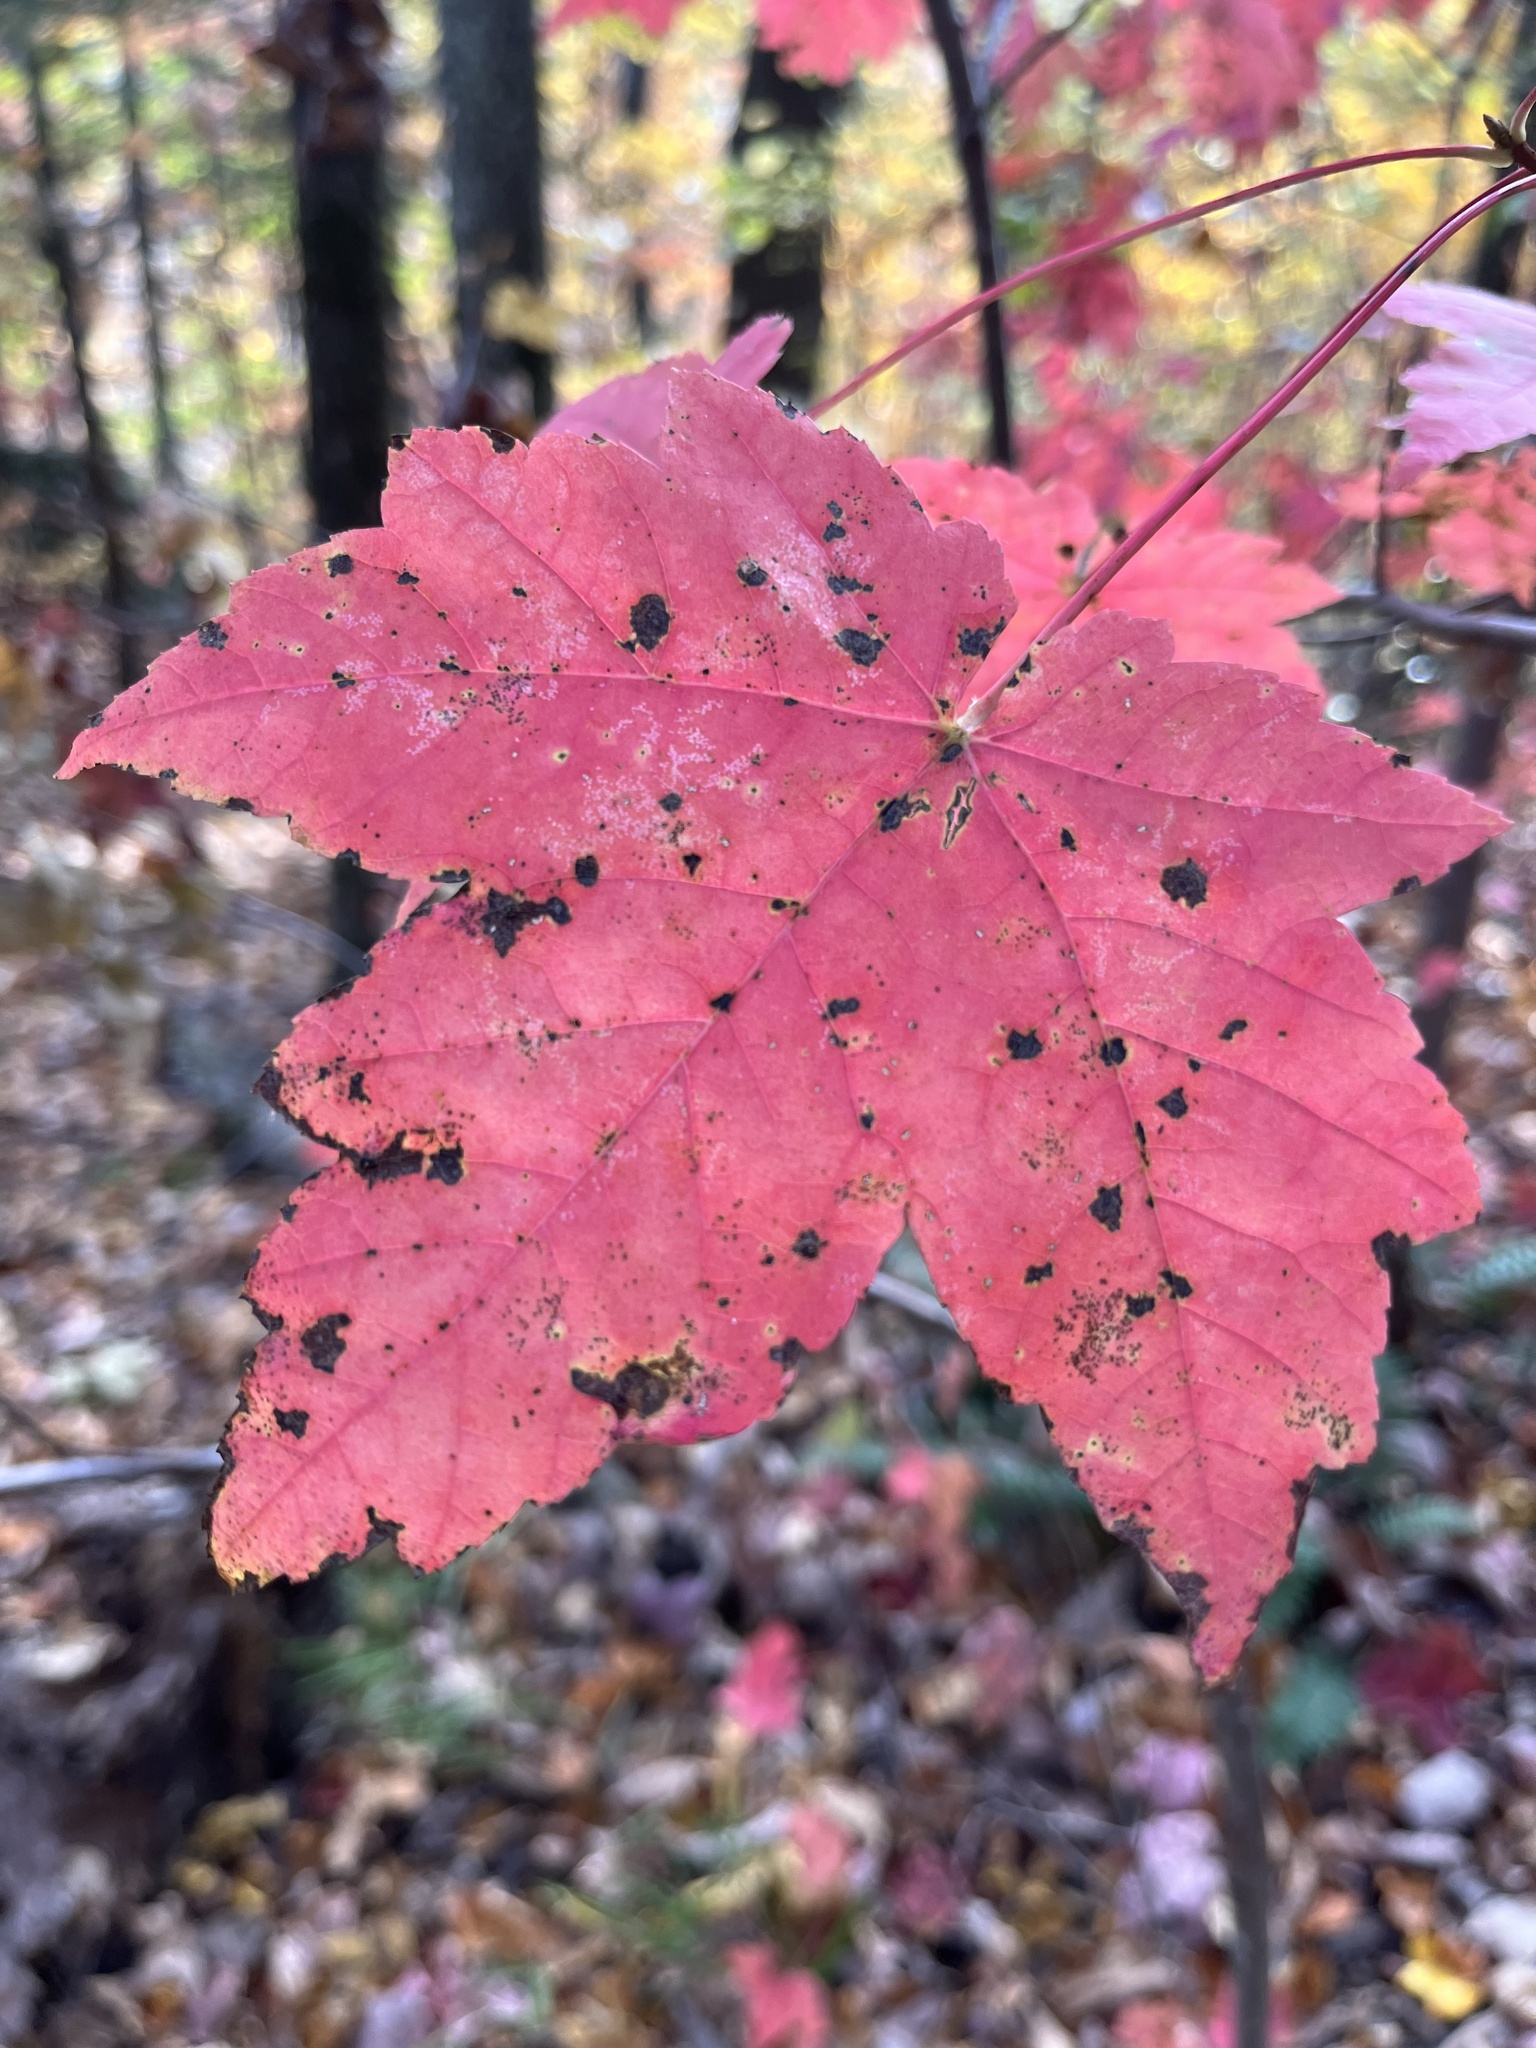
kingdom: Plantae
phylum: Tracheophyta
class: Magnoliopsida
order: Sapindales
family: Sapindaceae
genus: Acer
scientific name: Acer rubrum
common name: Red maple
